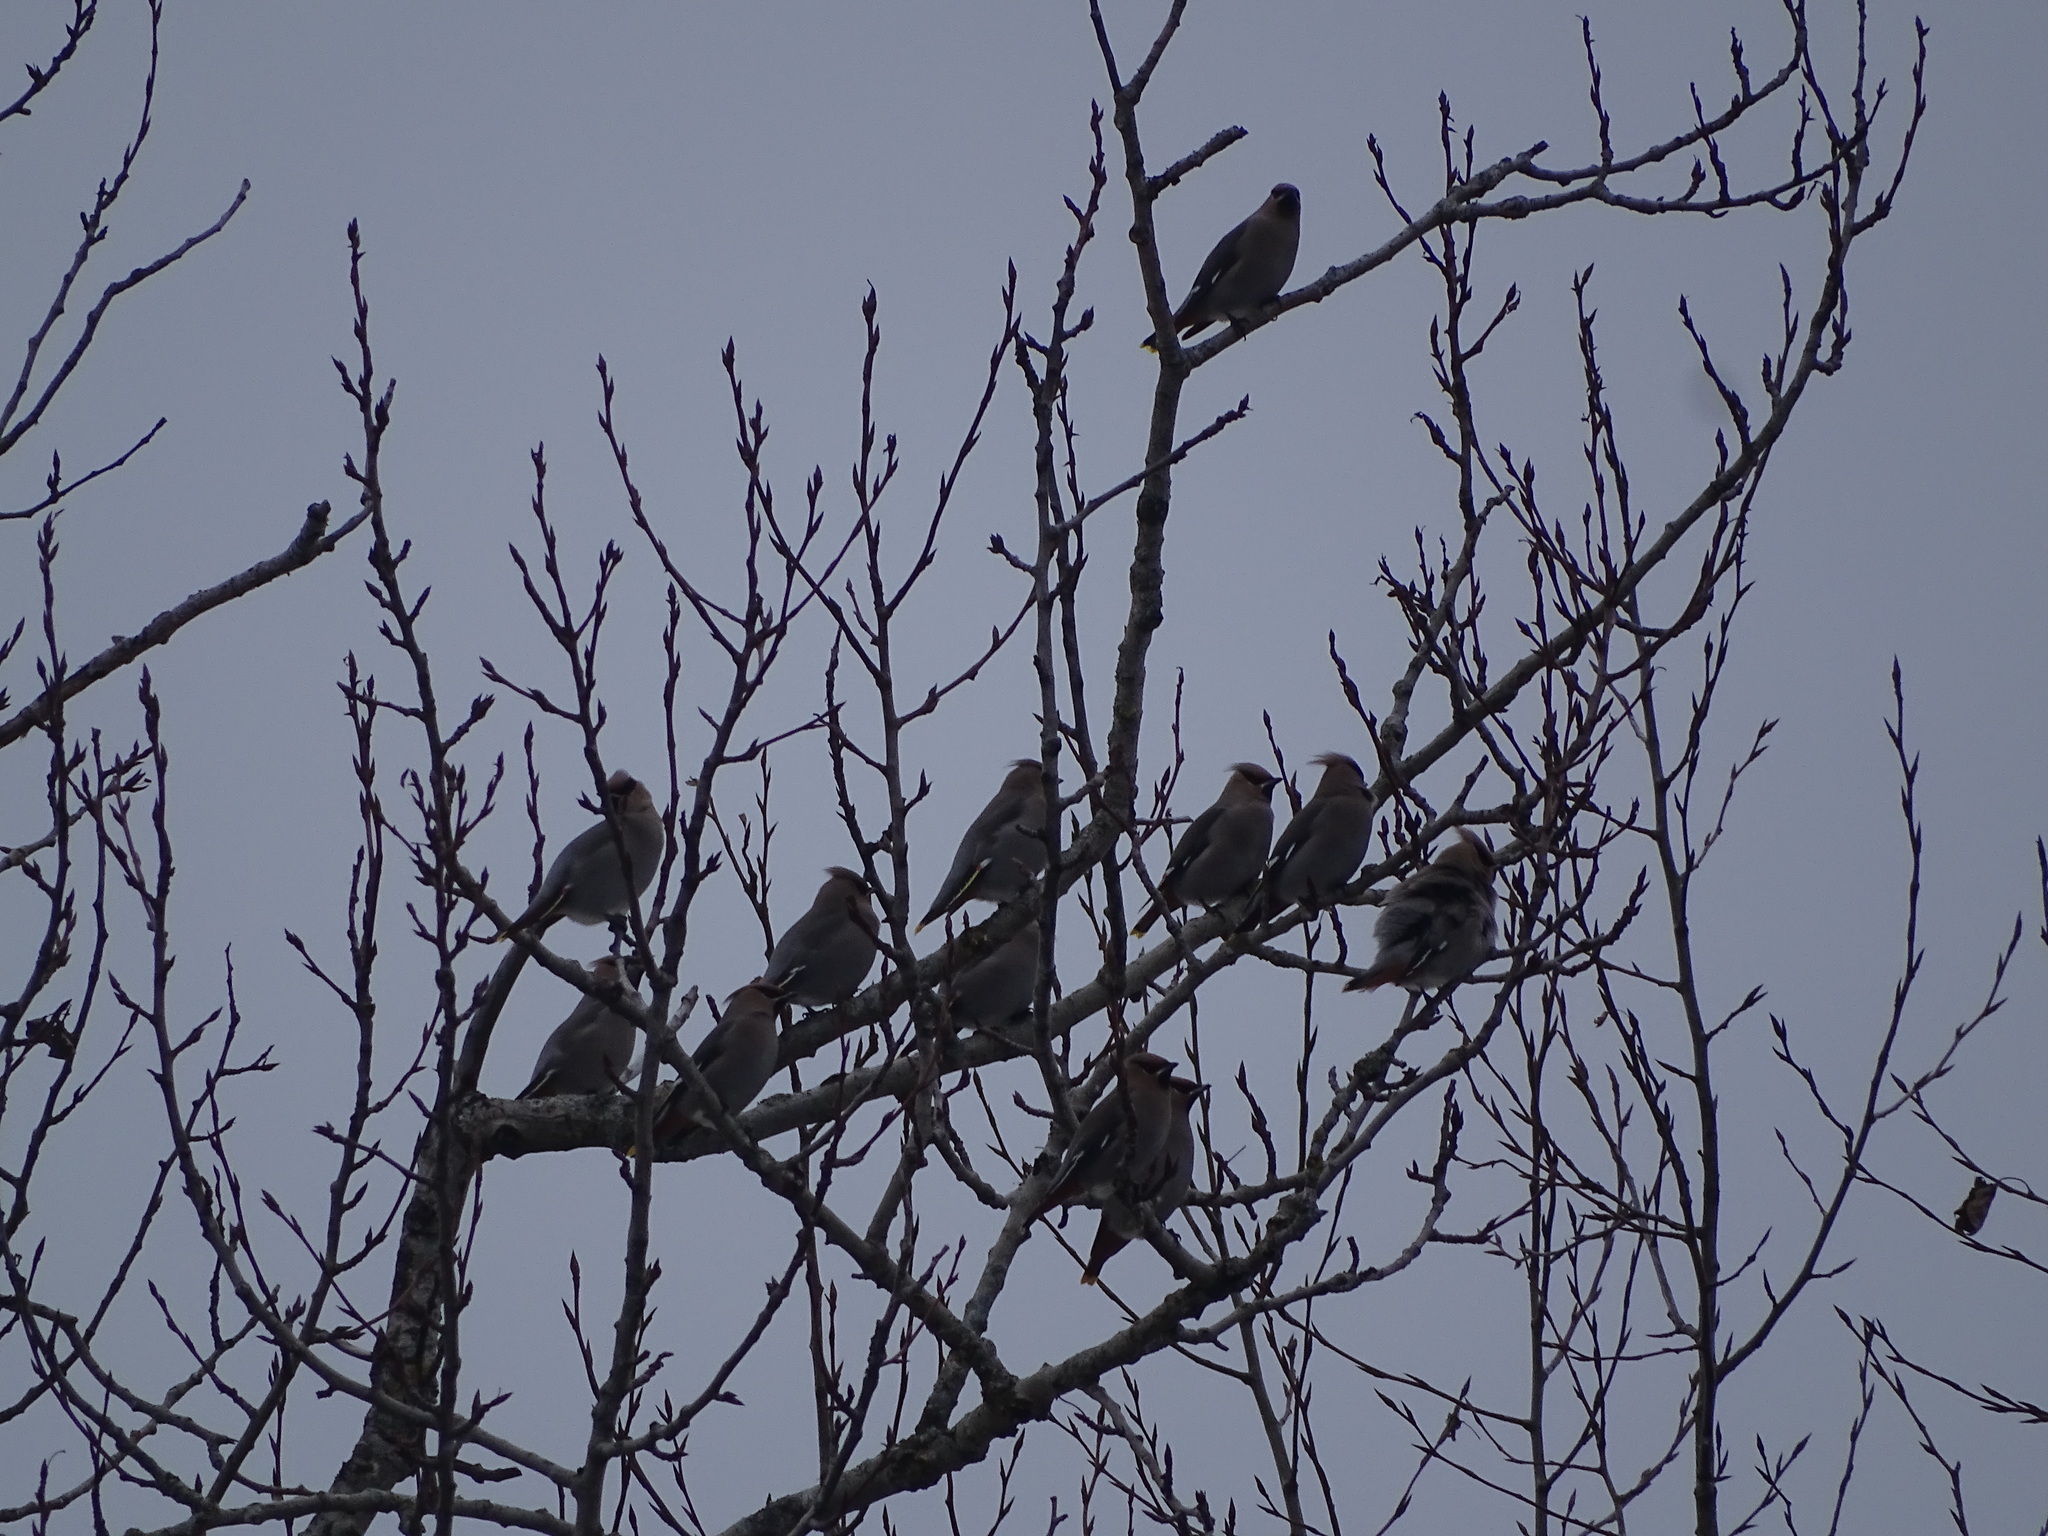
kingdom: Animalia
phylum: Chordata
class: Aves
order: Passeriformes
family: Bombycillidae
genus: Bombycilla
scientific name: Bombycilla garrulus
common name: Bohemian waxwing
